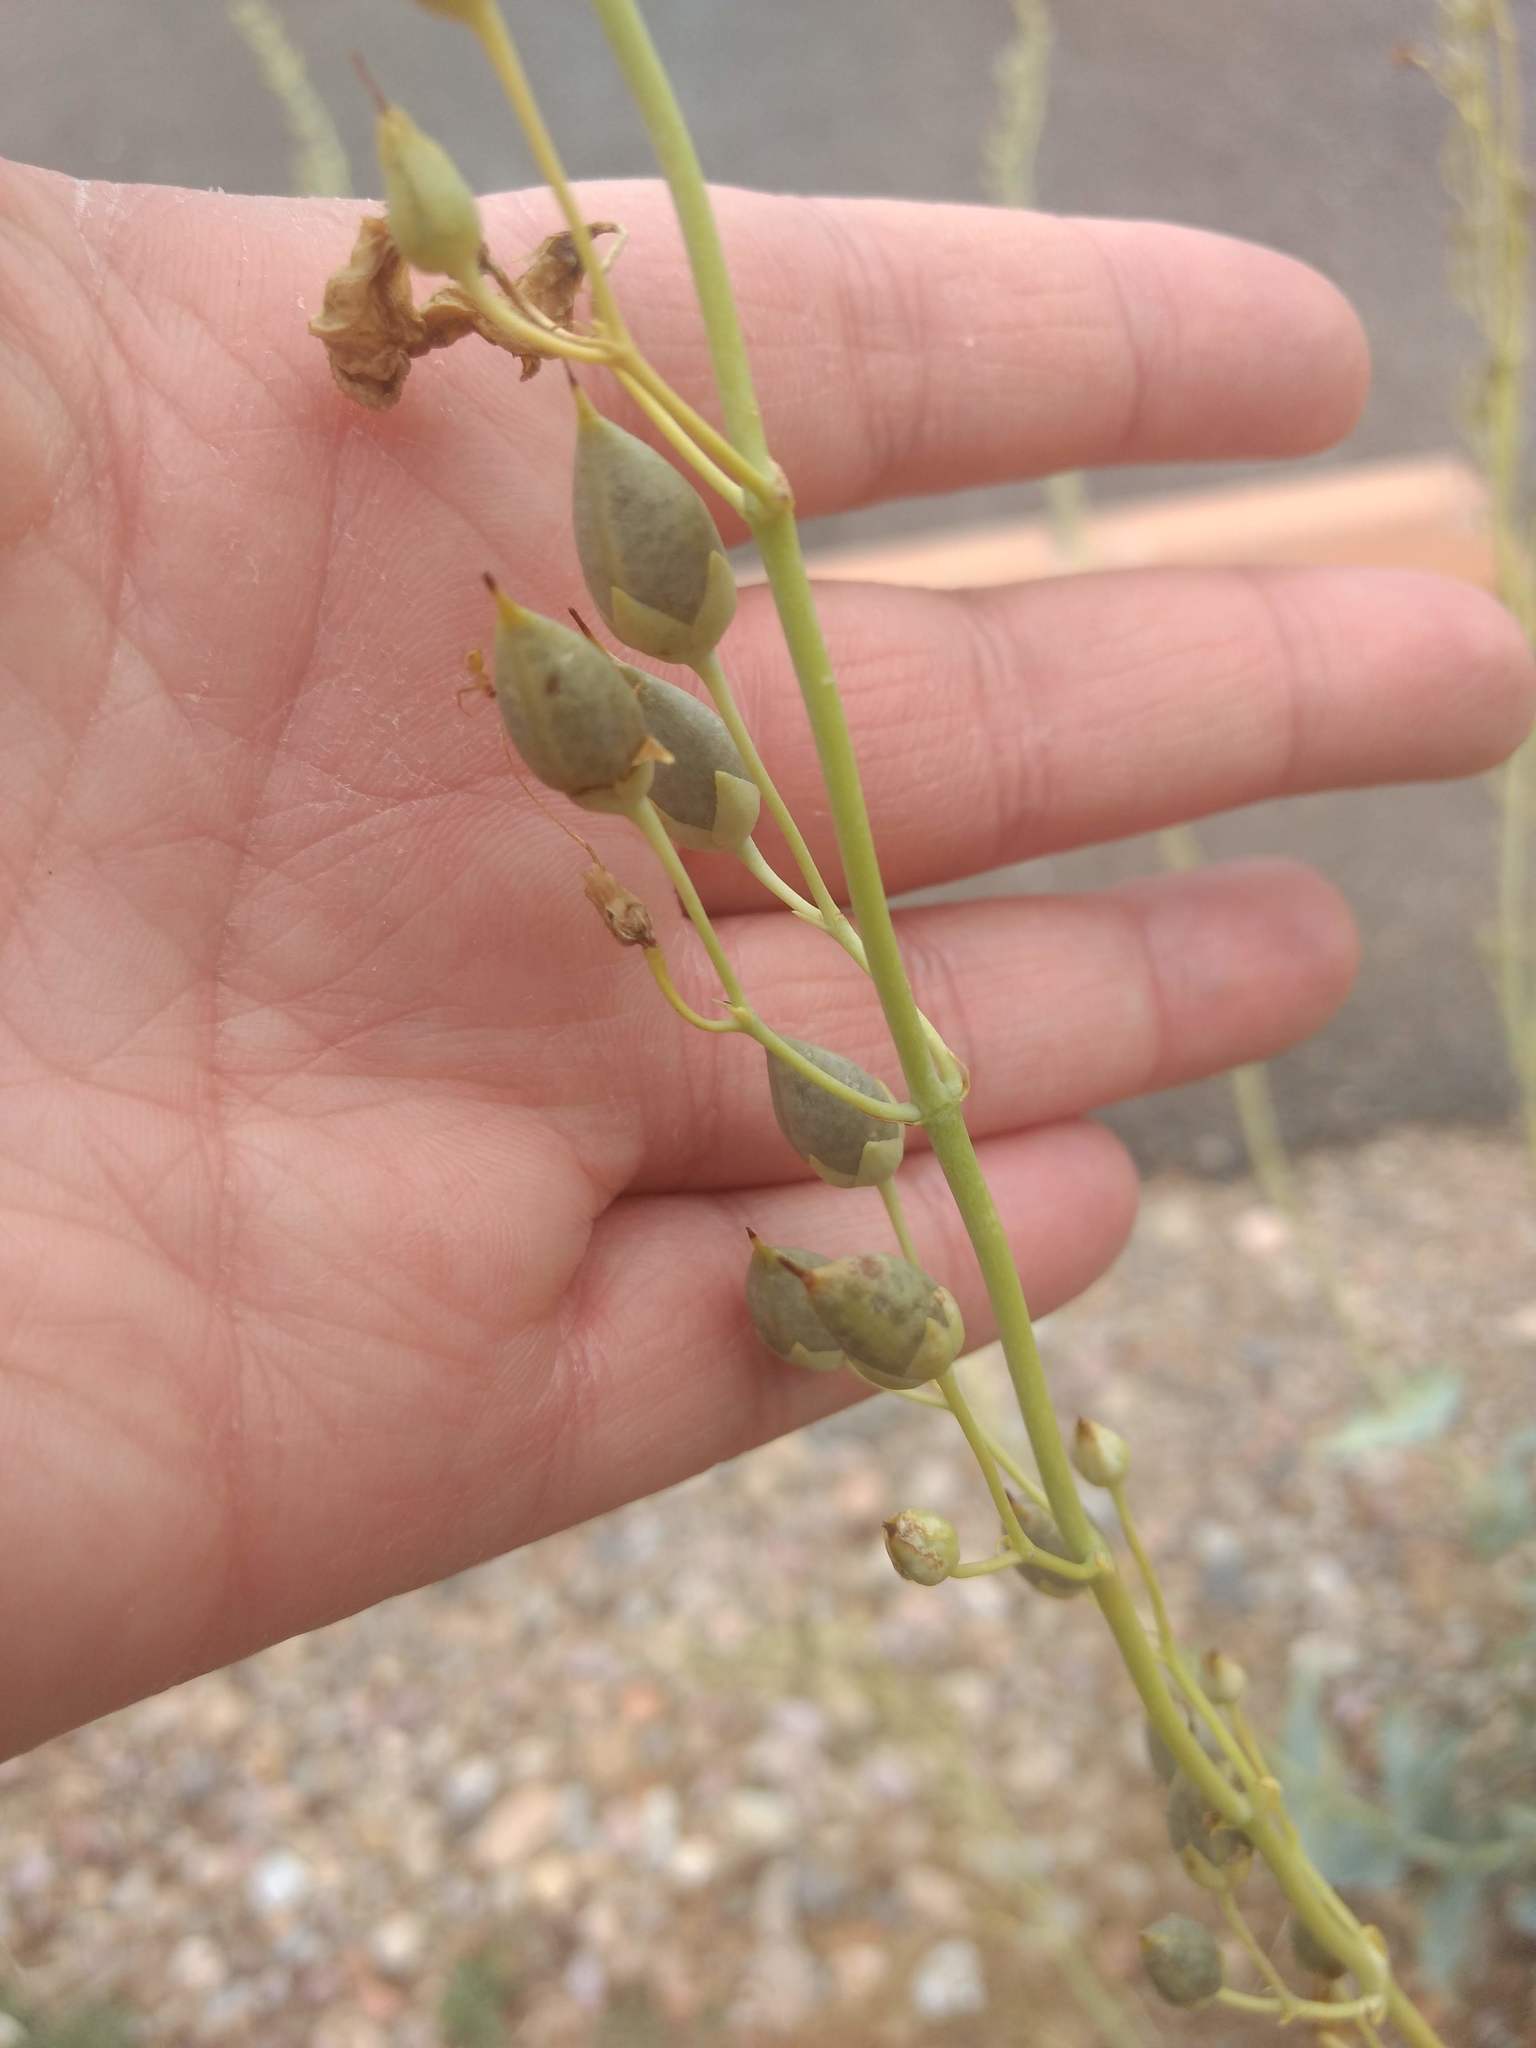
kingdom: Plantae
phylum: Tracheophyta
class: Magnoliopsida
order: Lamiales
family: Plantaginaceae
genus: Penstemon
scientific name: Penstemon palmeri
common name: Palmer penstemon
